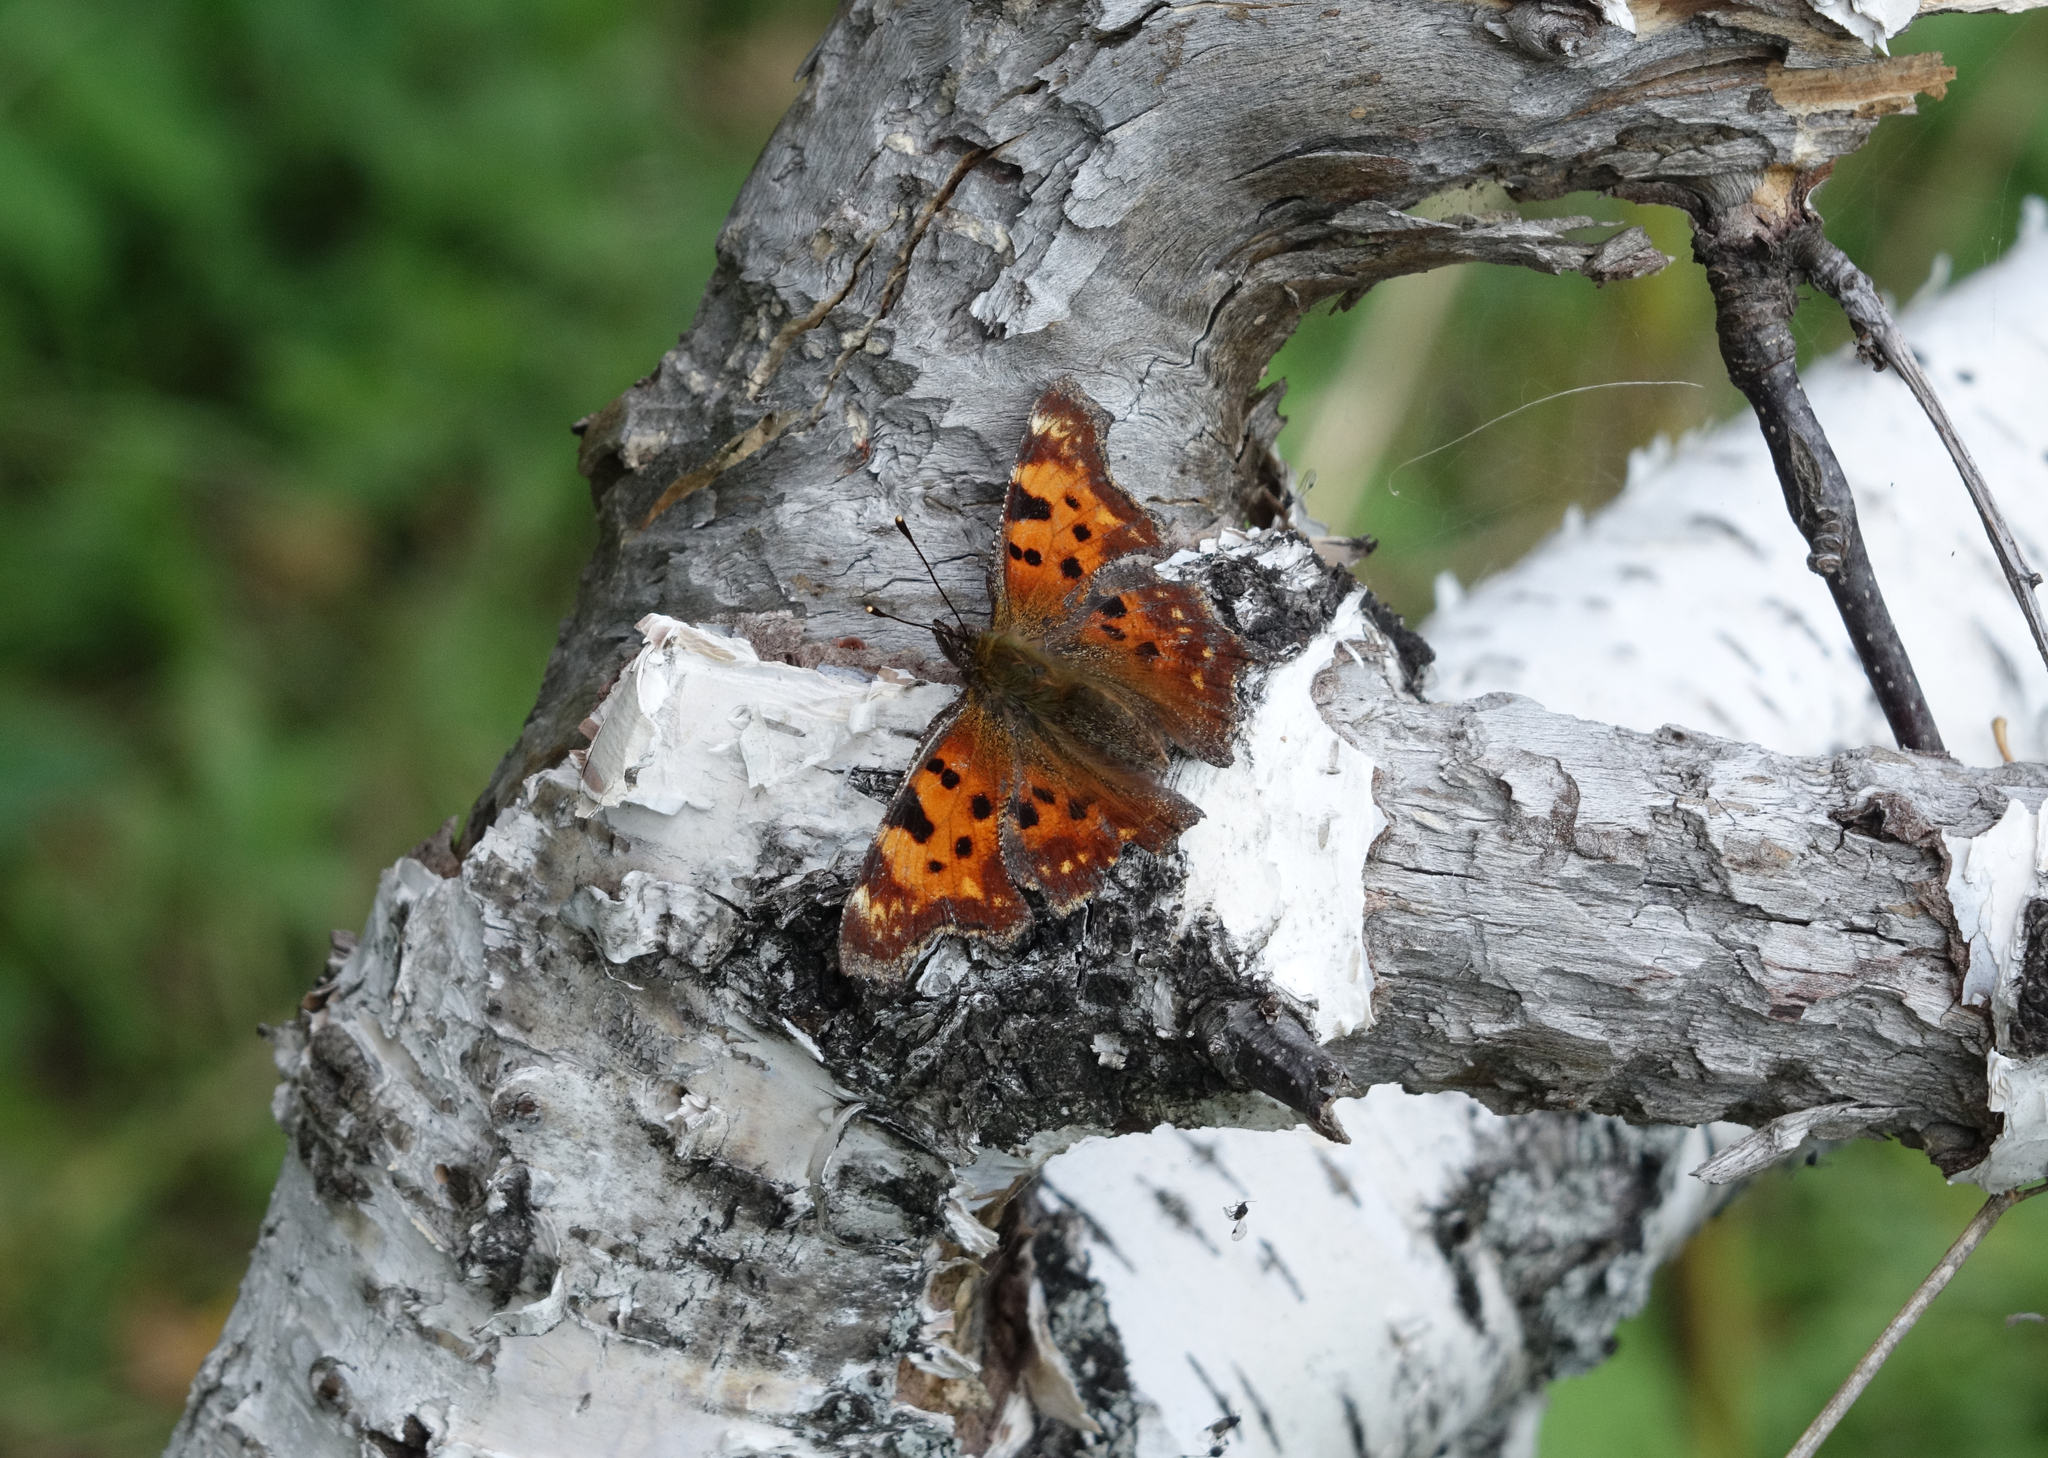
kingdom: Animalia
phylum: Arthropoda
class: Insecta
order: Lepidoptera
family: Nymphalidae
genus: Polygonia
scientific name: Polygonia c-album
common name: Comma
